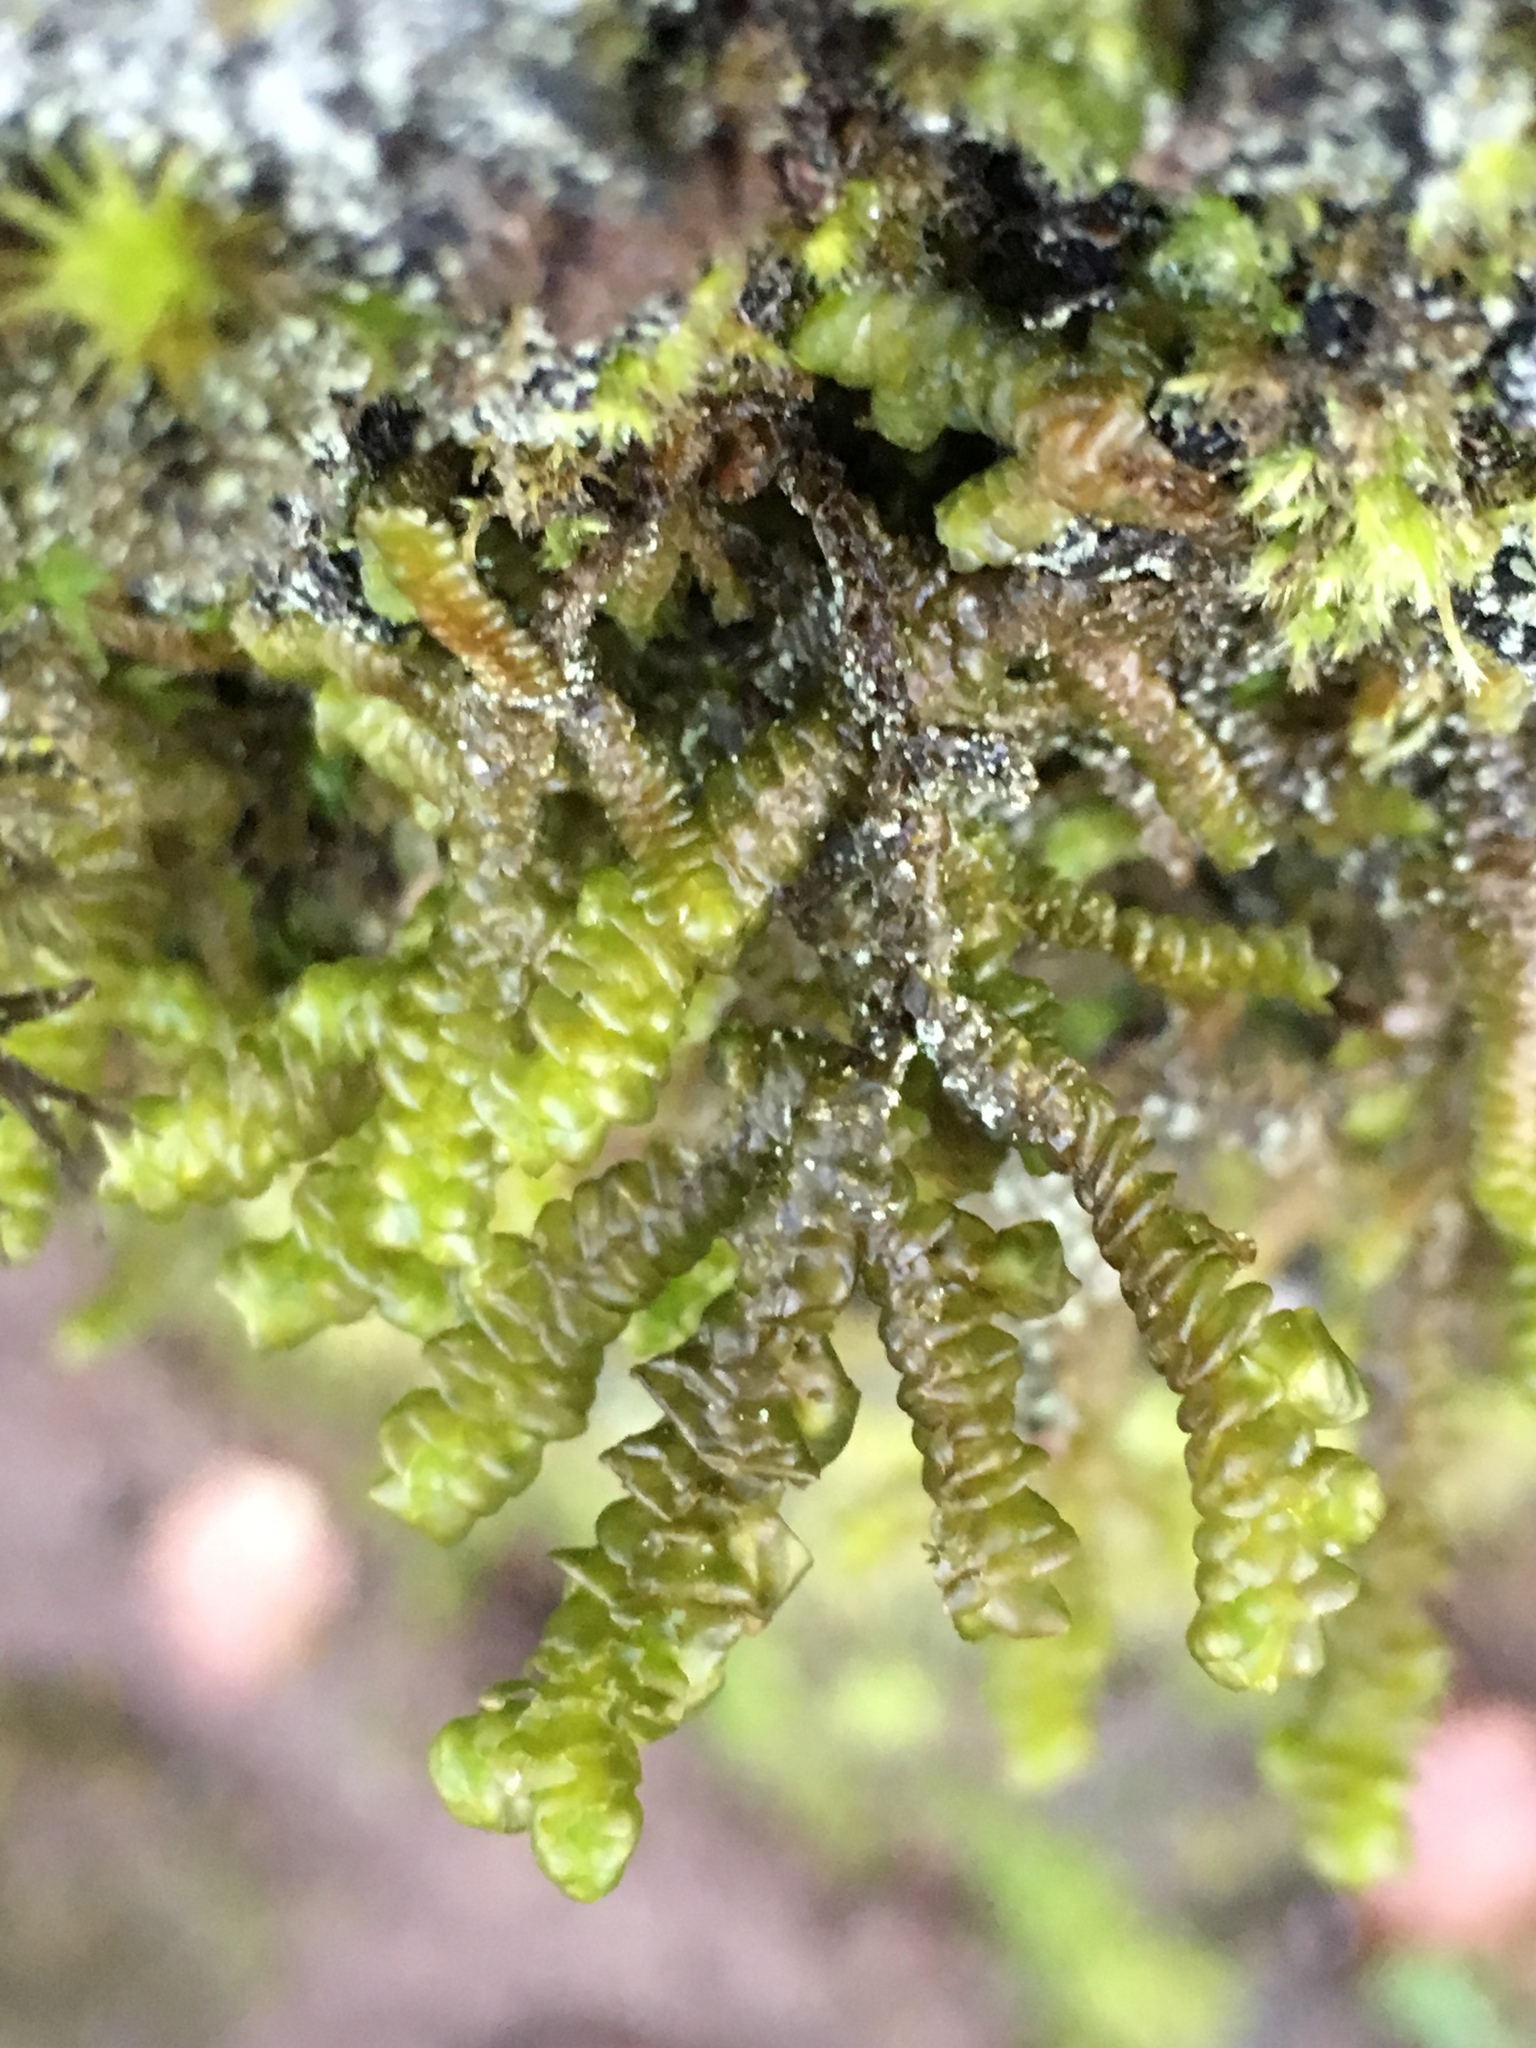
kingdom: Plantae
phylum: Marchantiophyta
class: Jungermanniopsida
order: Porellales
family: Porellaceae
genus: Porella
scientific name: Porella navicularis
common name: Tree ruffle liverwort
